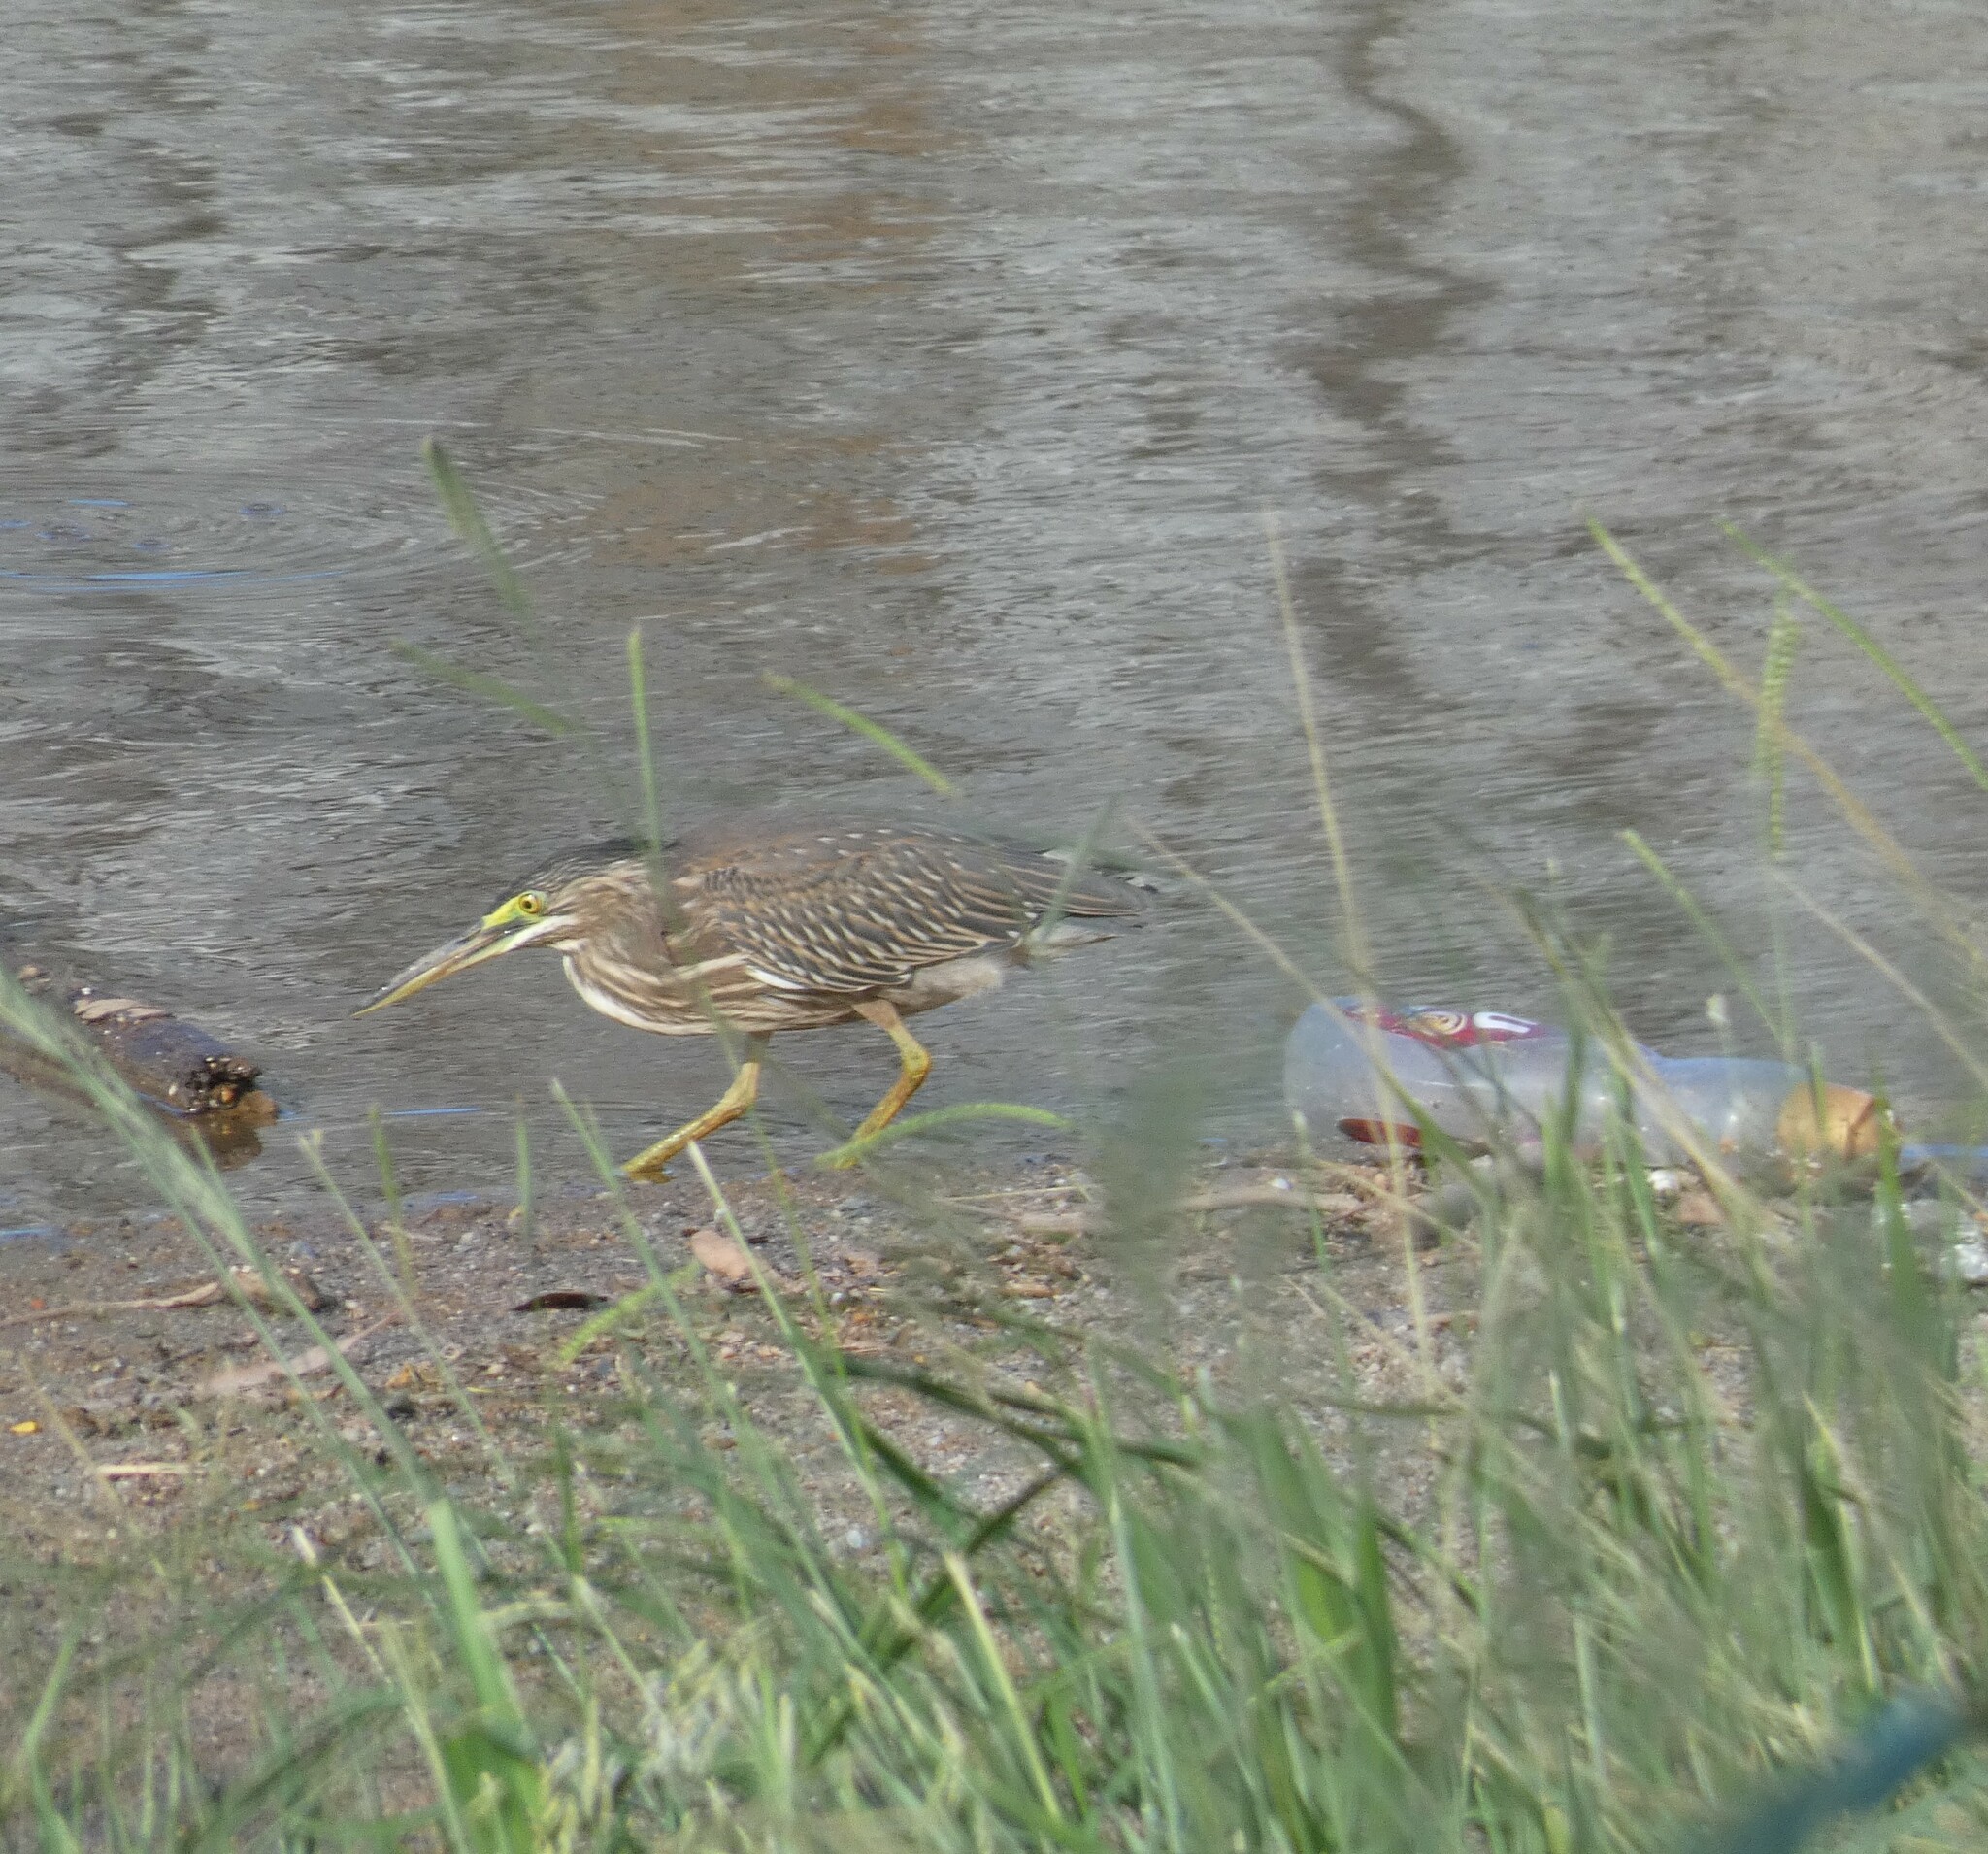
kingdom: Animalia
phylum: Chordata
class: Aves
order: Pelecaniformes
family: Ardeidae
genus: Butorides
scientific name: Butorides striata
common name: Striated heron
